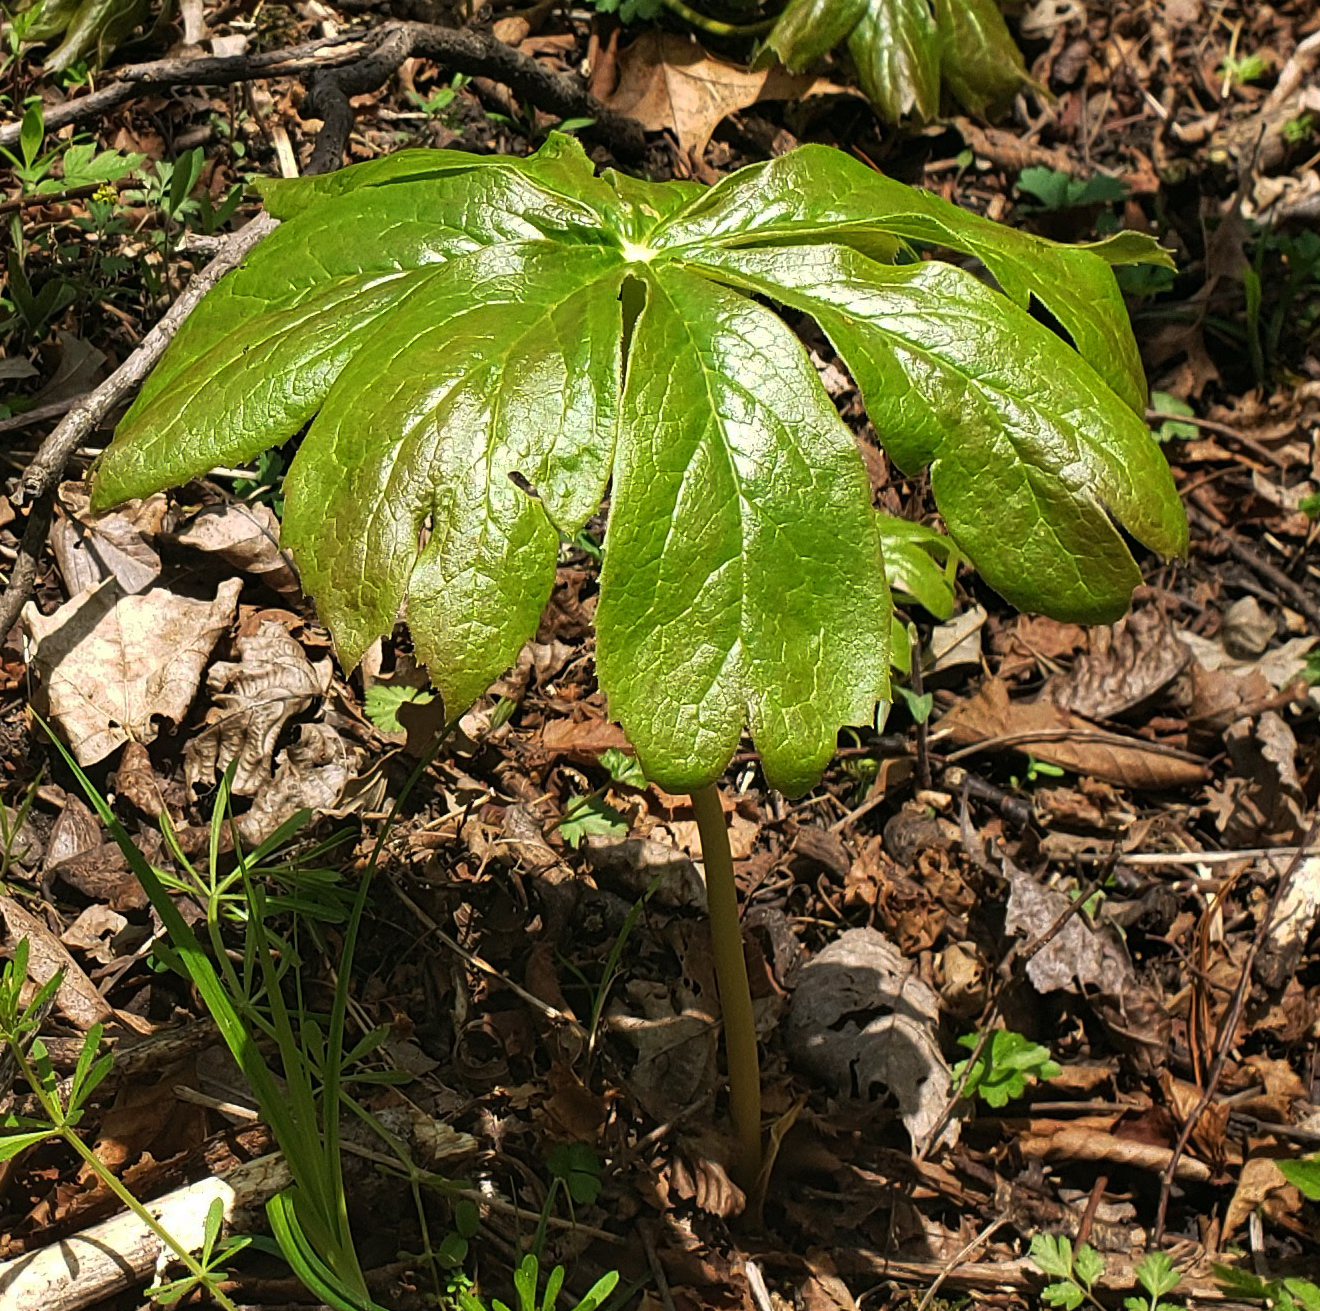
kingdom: Plantae
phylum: Tracheophyta
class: Magnoliopsida
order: Ranunculales
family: Berberidaceae
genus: Podophyllum
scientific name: Podophyllum peltatum
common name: Wild mandrake
